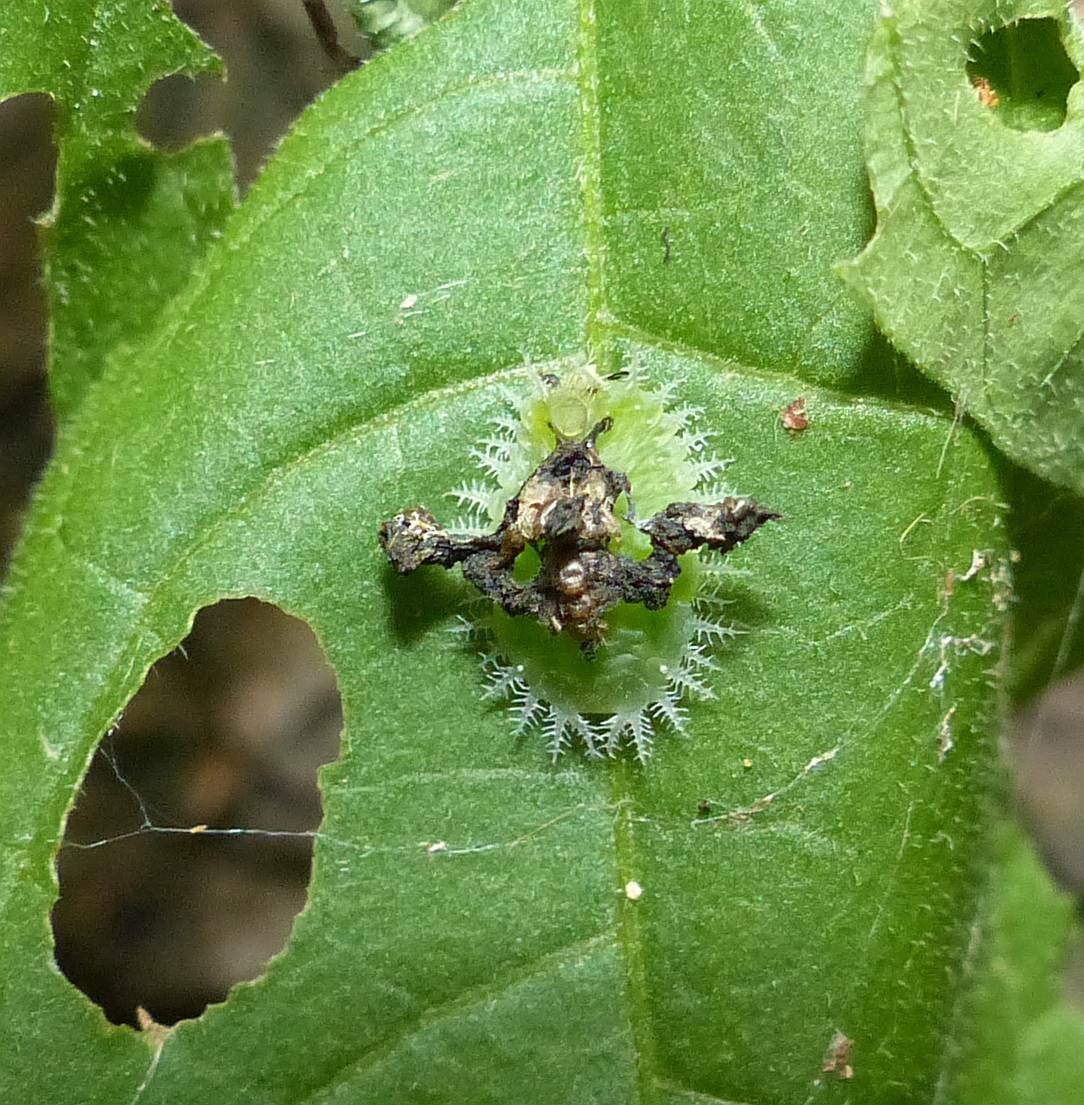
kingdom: Animalia
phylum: Arthropoda
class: Insecta
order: Coleoptera
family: Chrysomelidae
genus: Helocassis
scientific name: Helocassis clavata
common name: Clavate tortoise beetle
